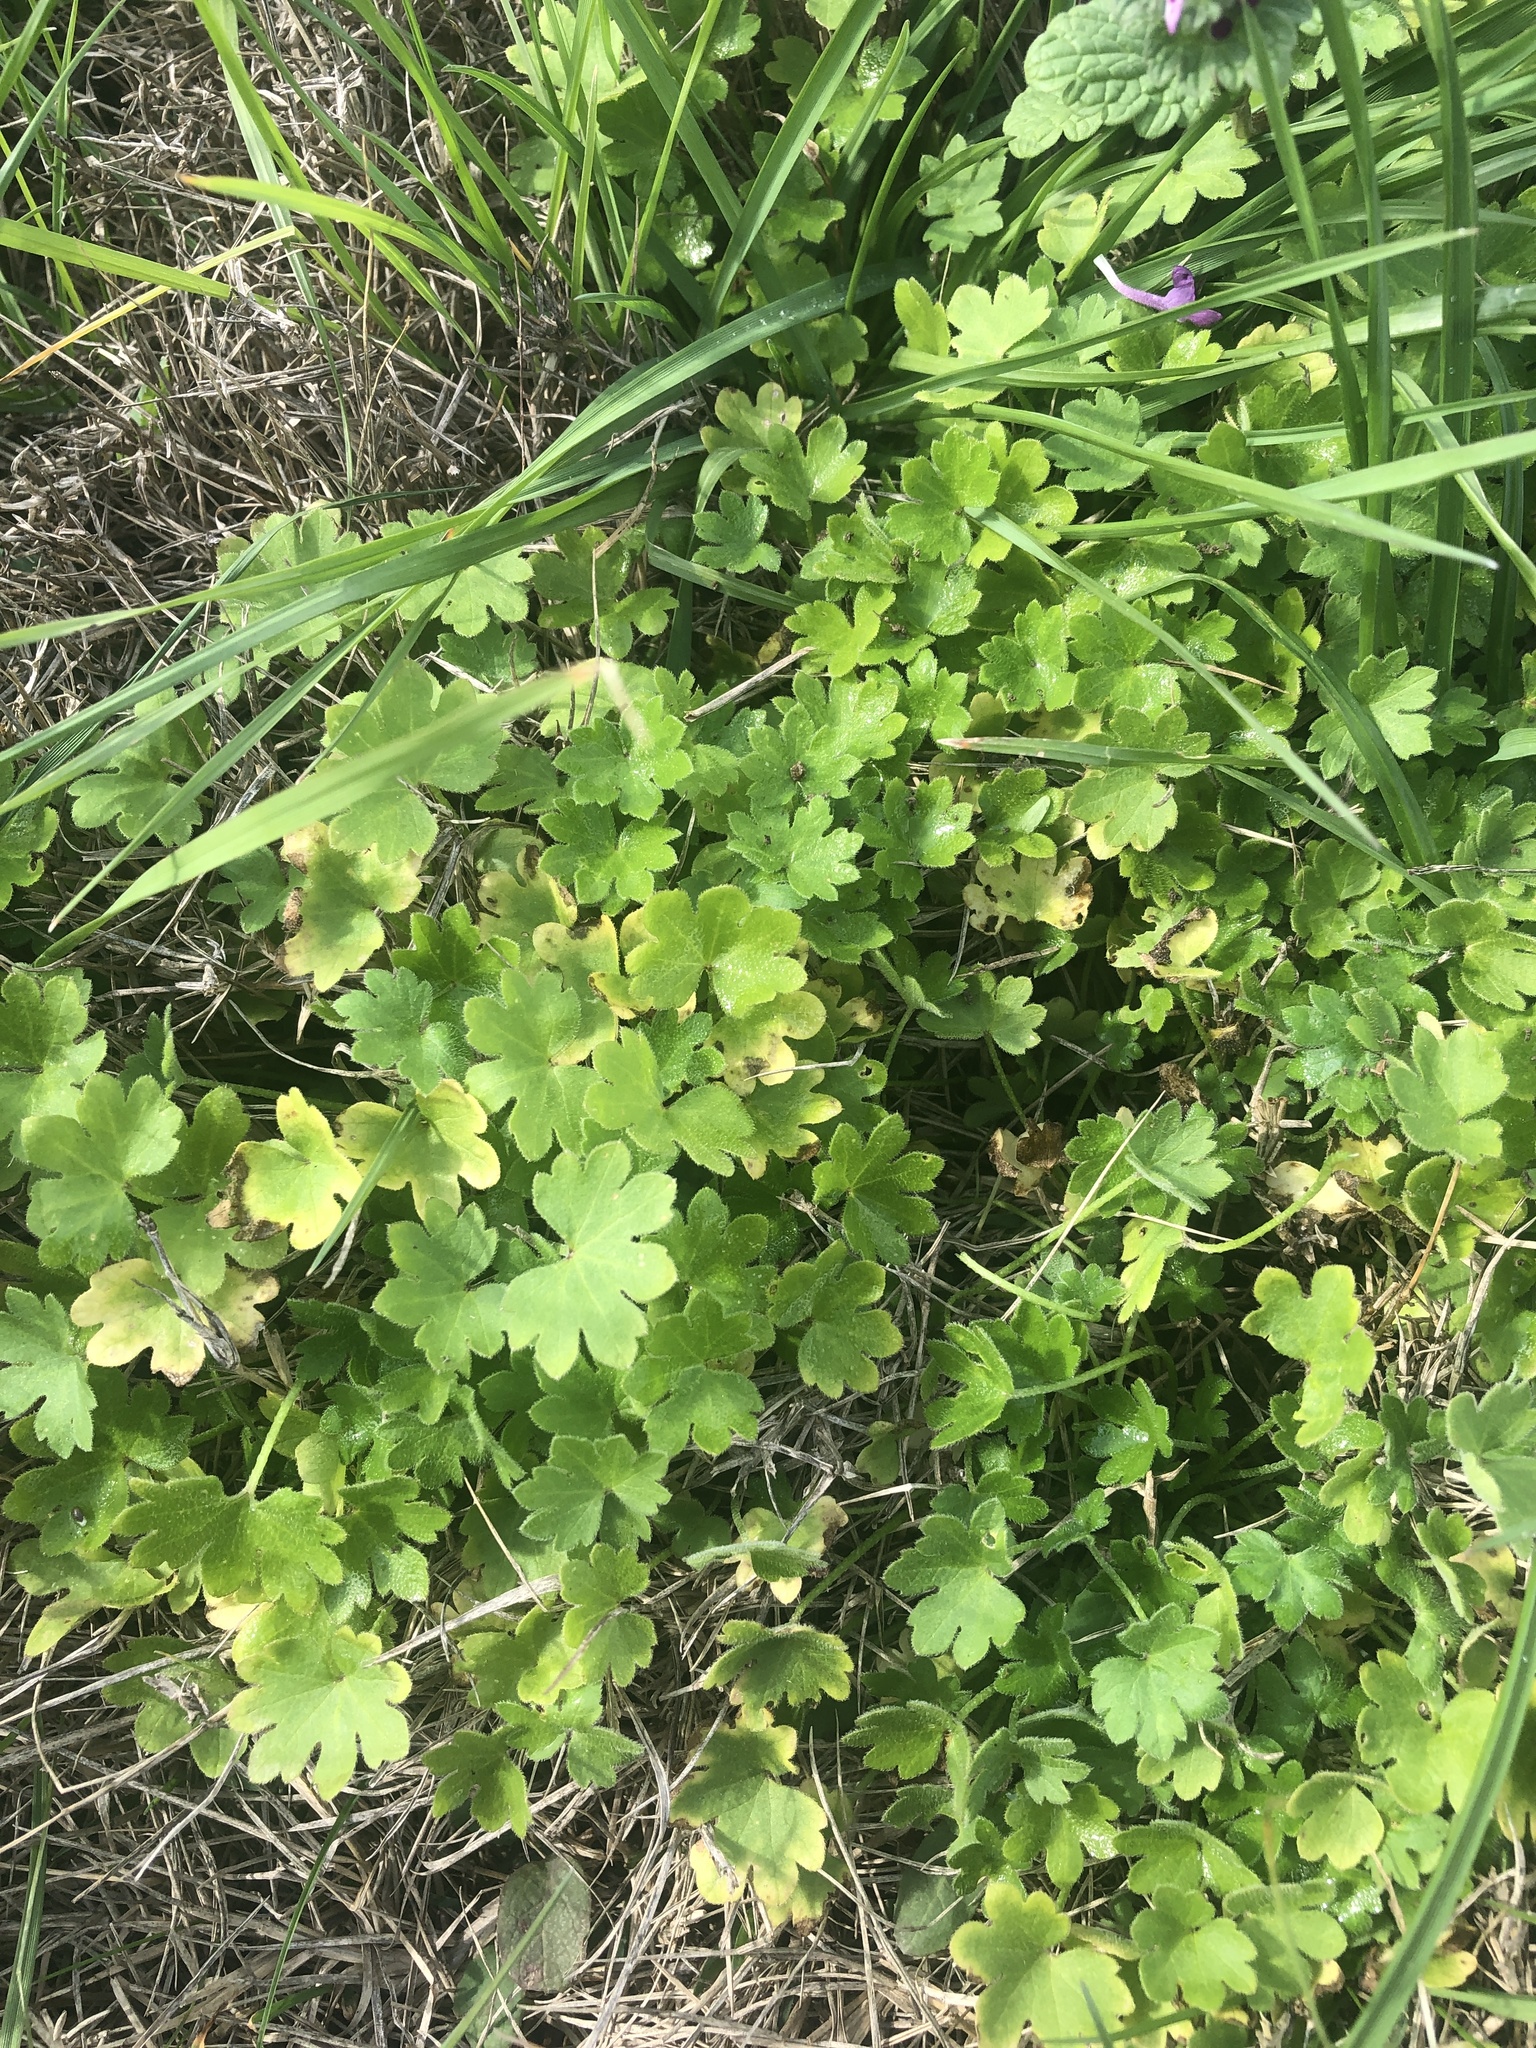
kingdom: Plantae
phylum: Tracheophyta
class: Magnoliopsida
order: Apiales
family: Apiaceae
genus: Bowlesia
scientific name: Bowlesia incana
